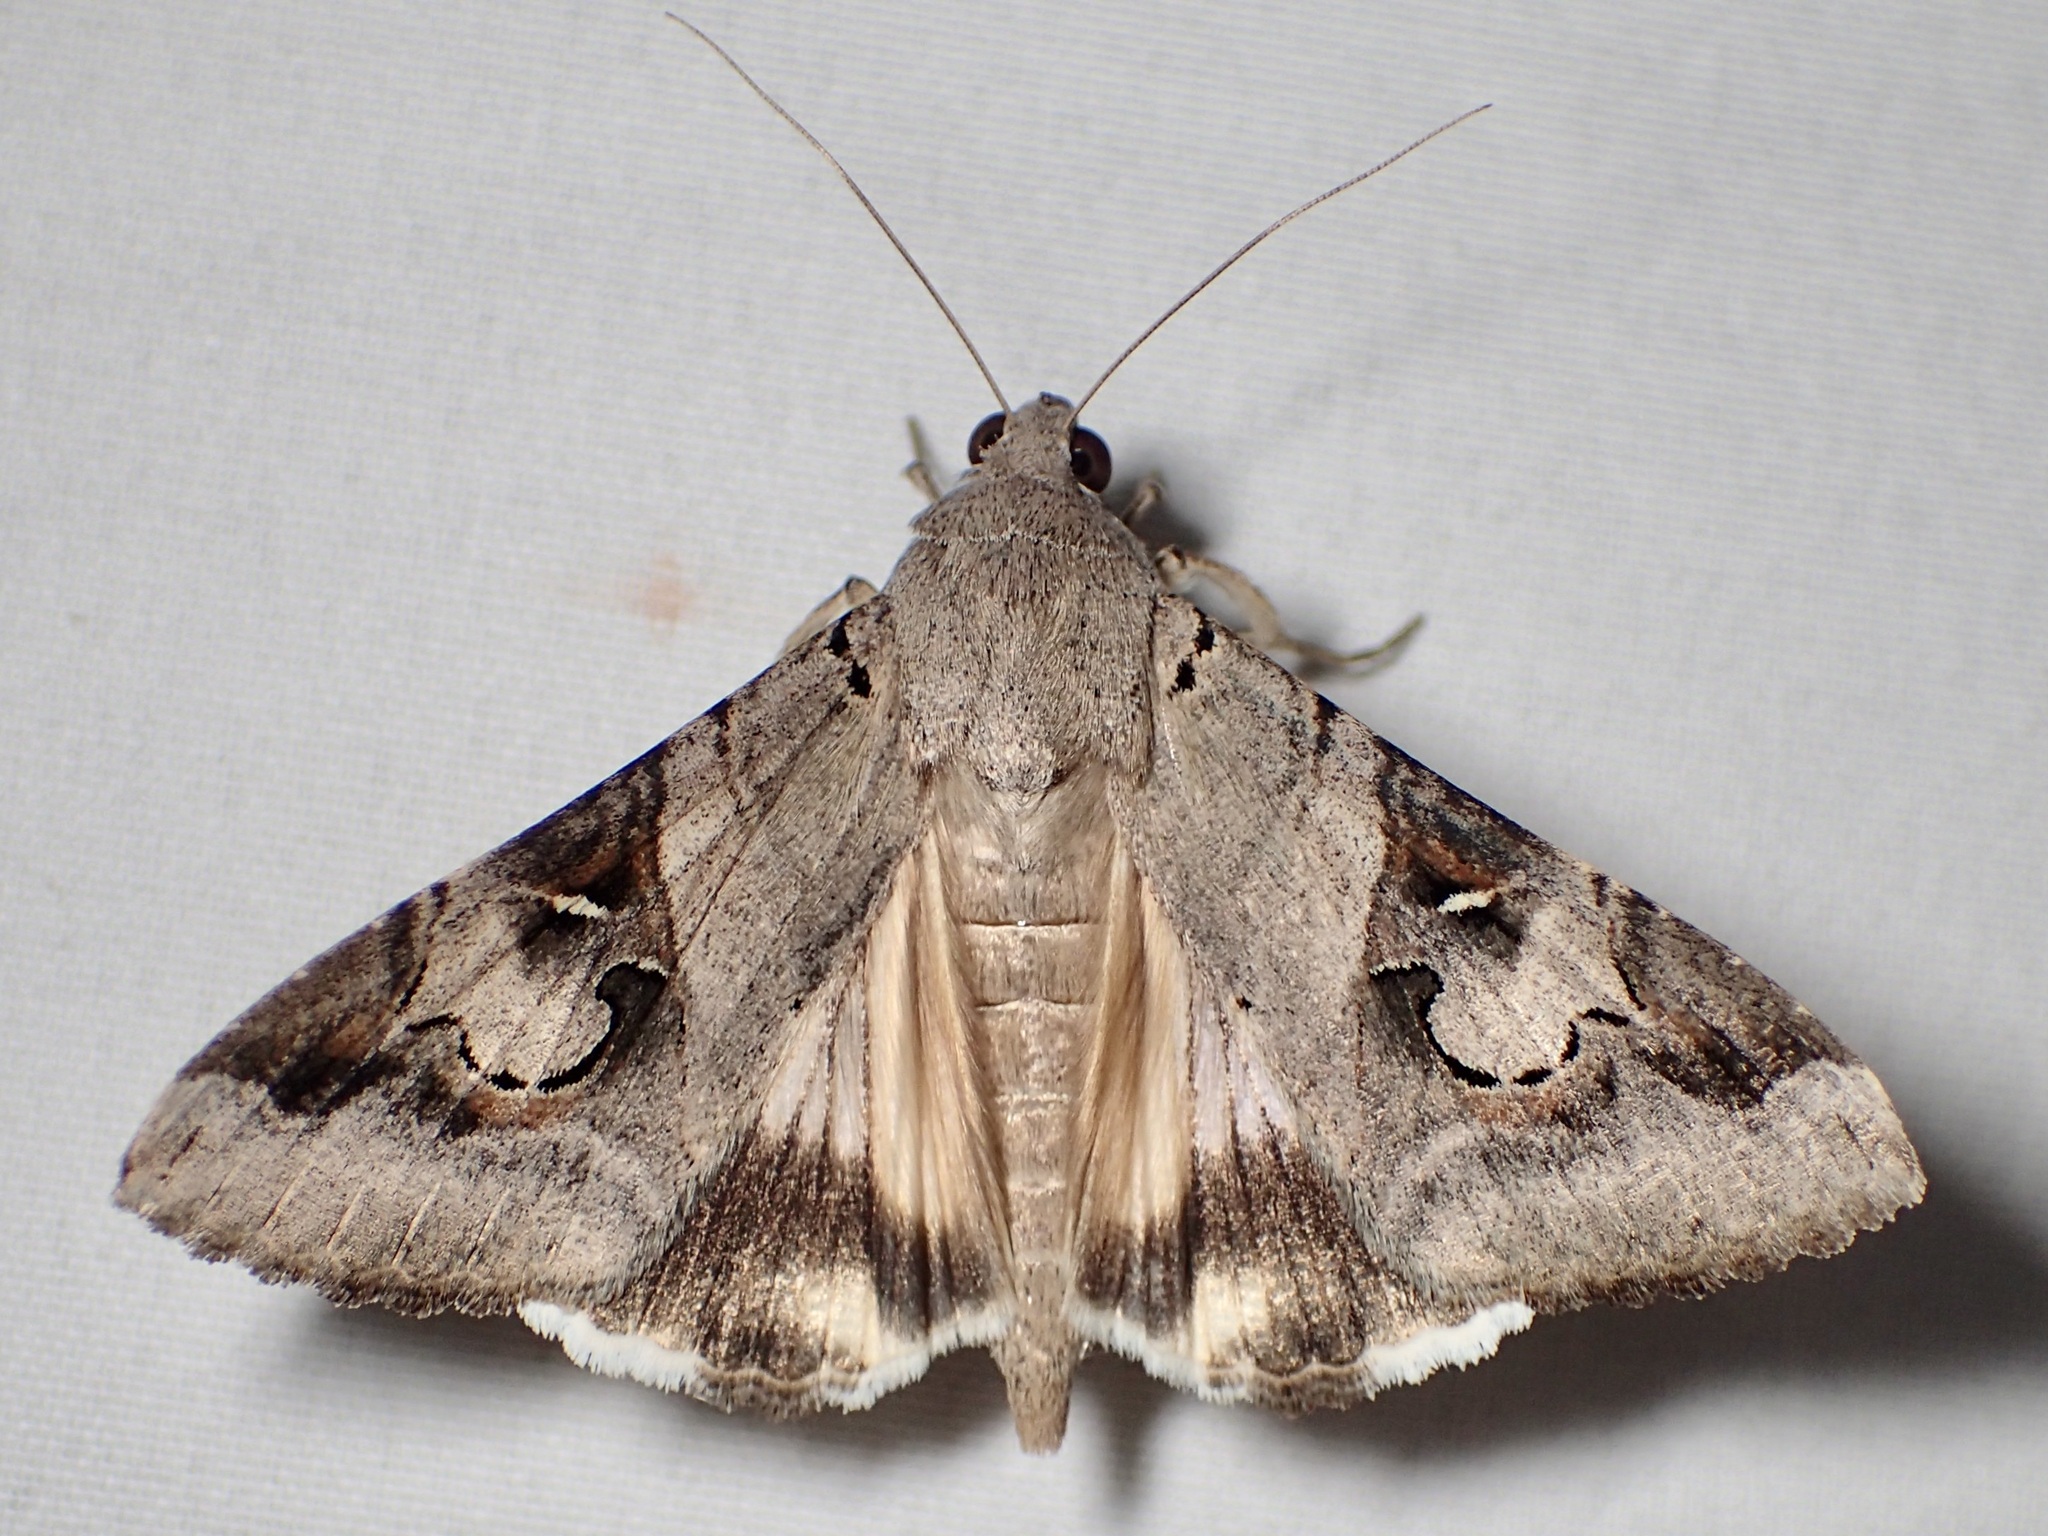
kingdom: Animalia
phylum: Arthropoda
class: Insecta
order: Lepidoptera
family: Erebidae
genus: Melipotis
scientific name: Melipotis indomita
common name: Moth
